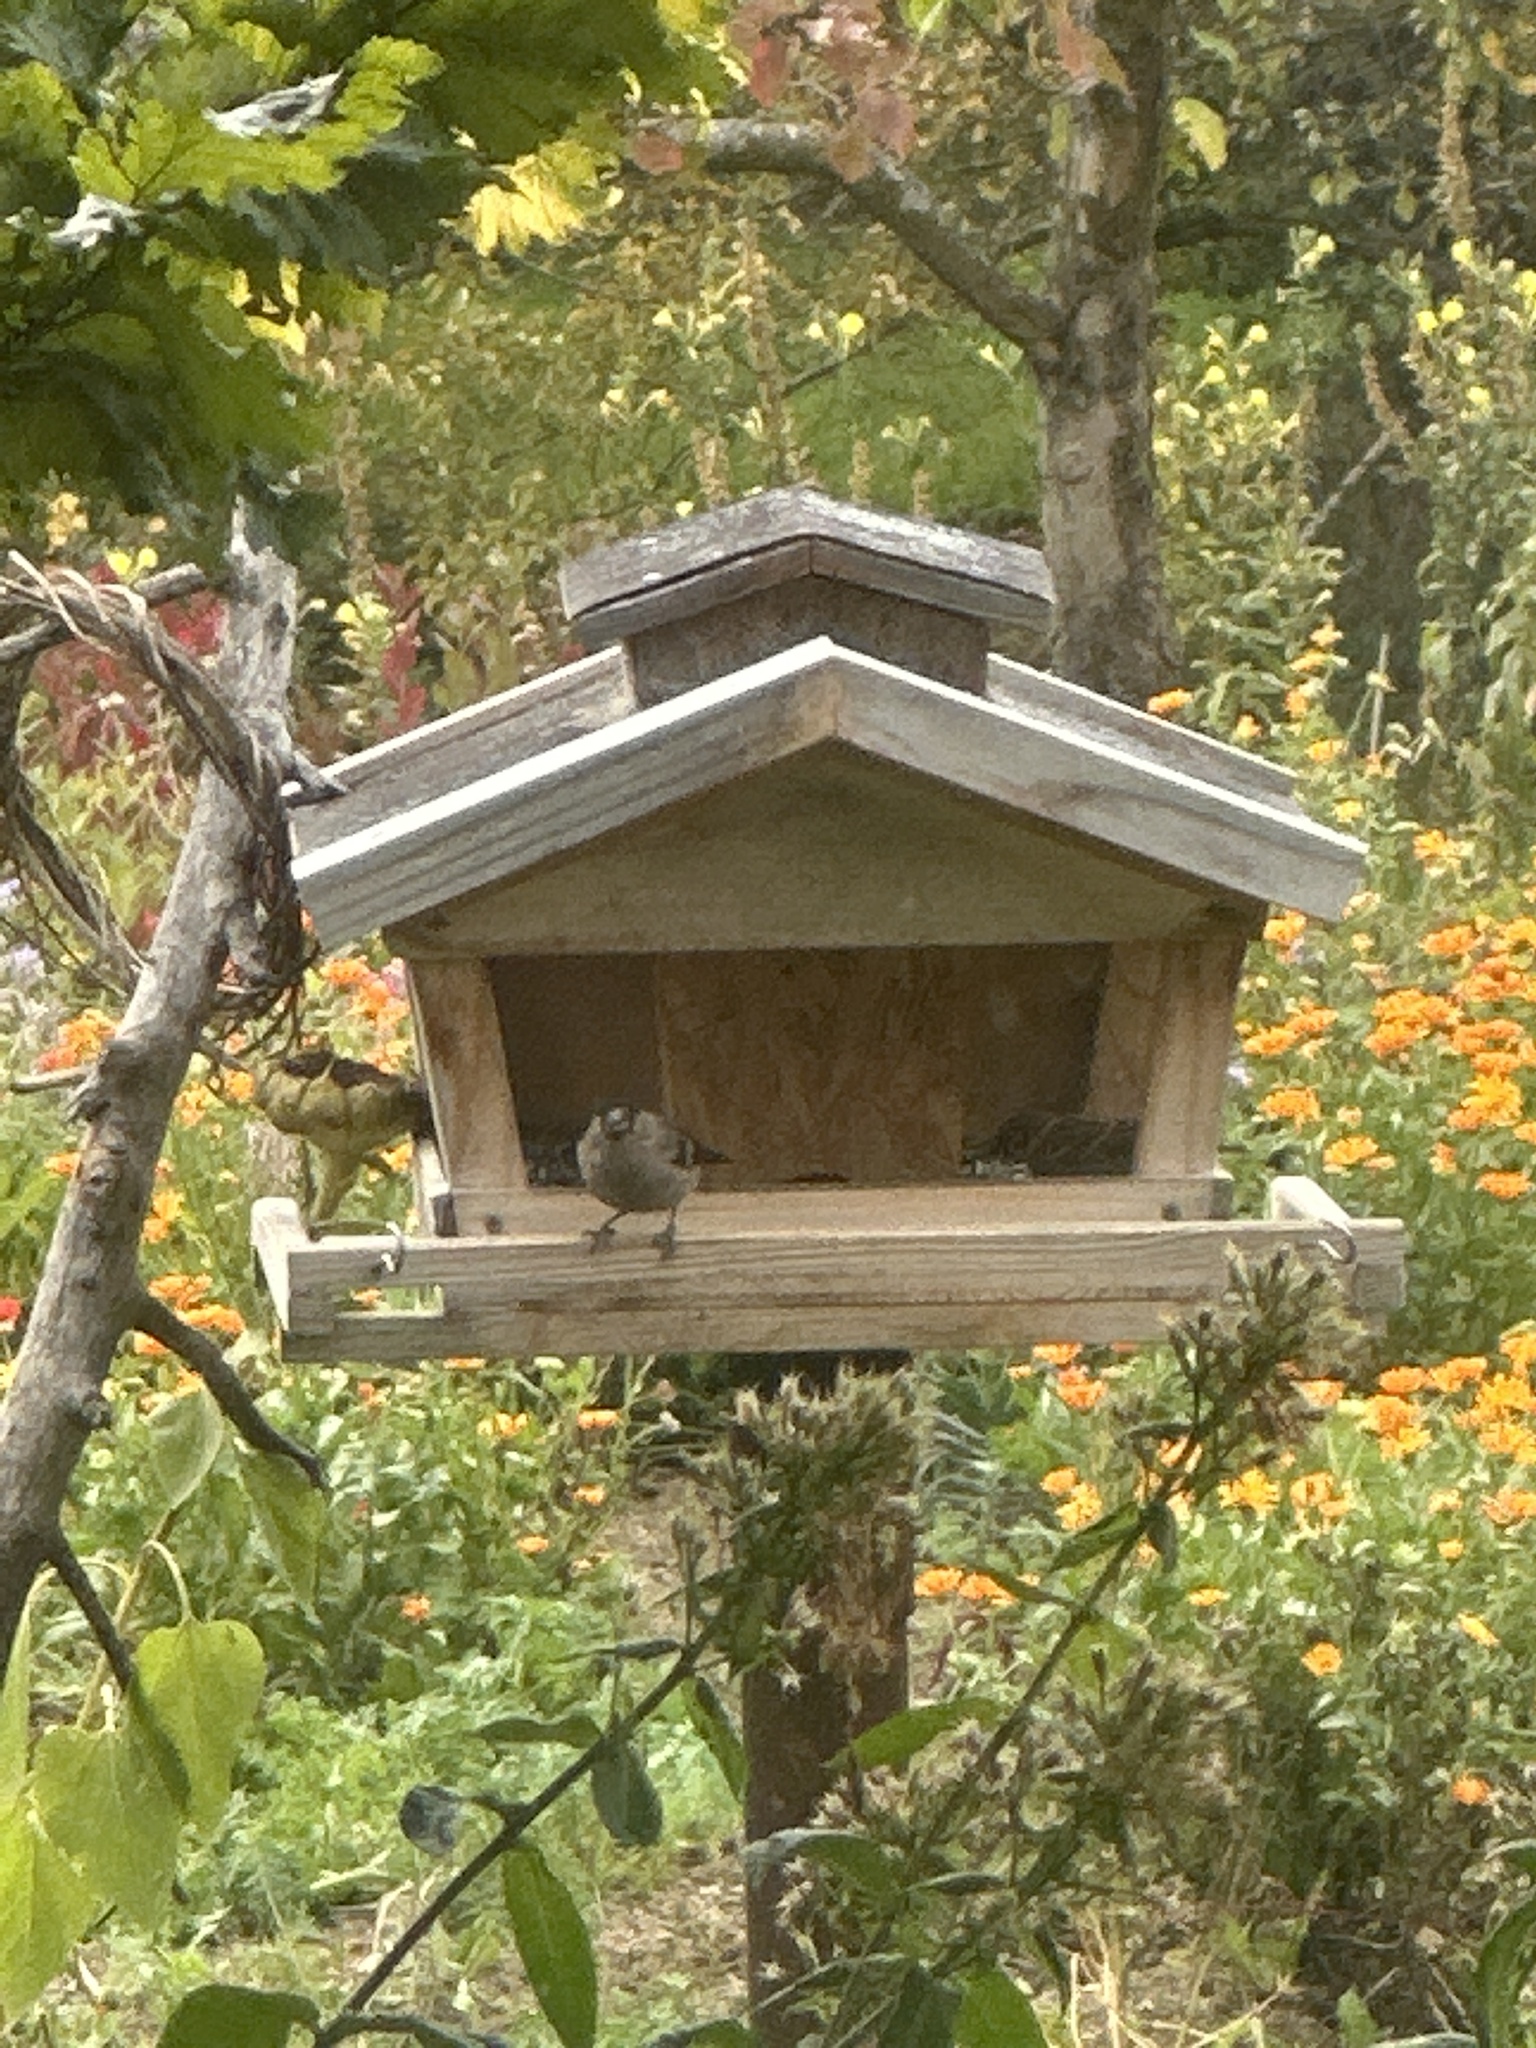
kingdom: Animalia
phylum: Chordata
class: Aves
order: Passeriformes
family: Fringillidae
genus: Pyrrhula
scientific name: Pyrrhula pyrrhula
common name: Eurasian bullfinch
